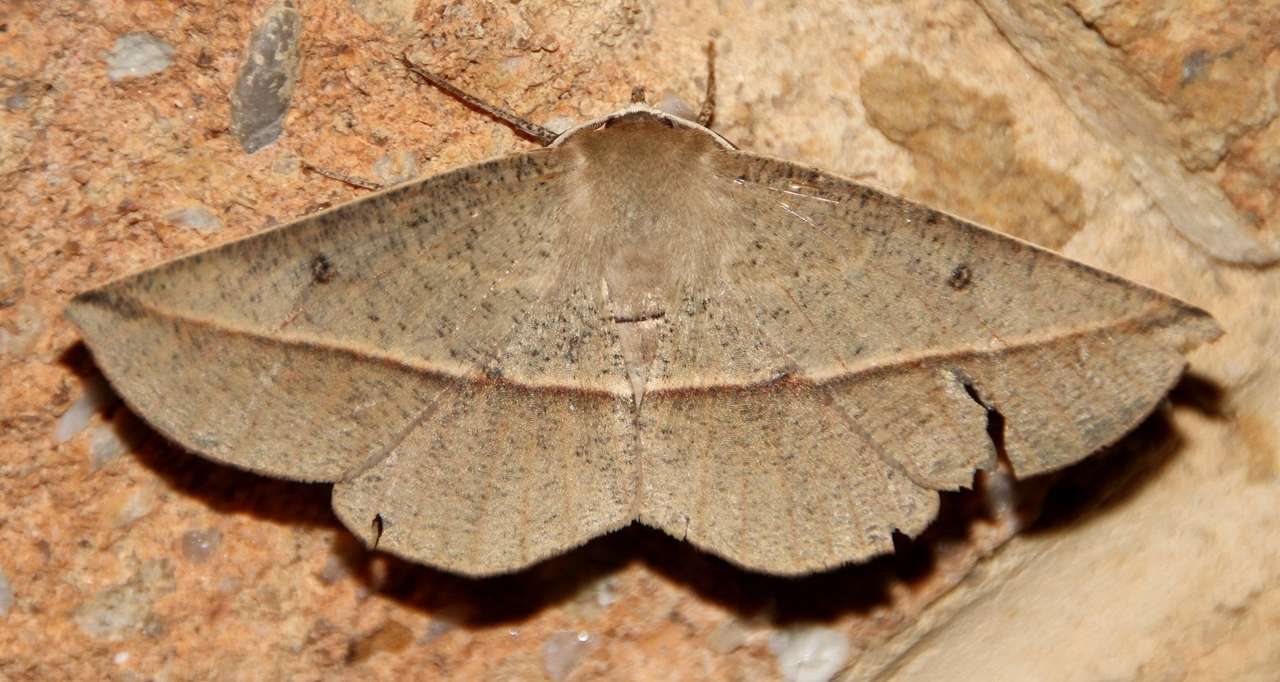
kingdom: Animalia
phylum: Arthropoda
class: Insecta
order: Lepidoptera
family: Geometridae
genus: Phallaria
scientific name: Phallaria ophiusaria
